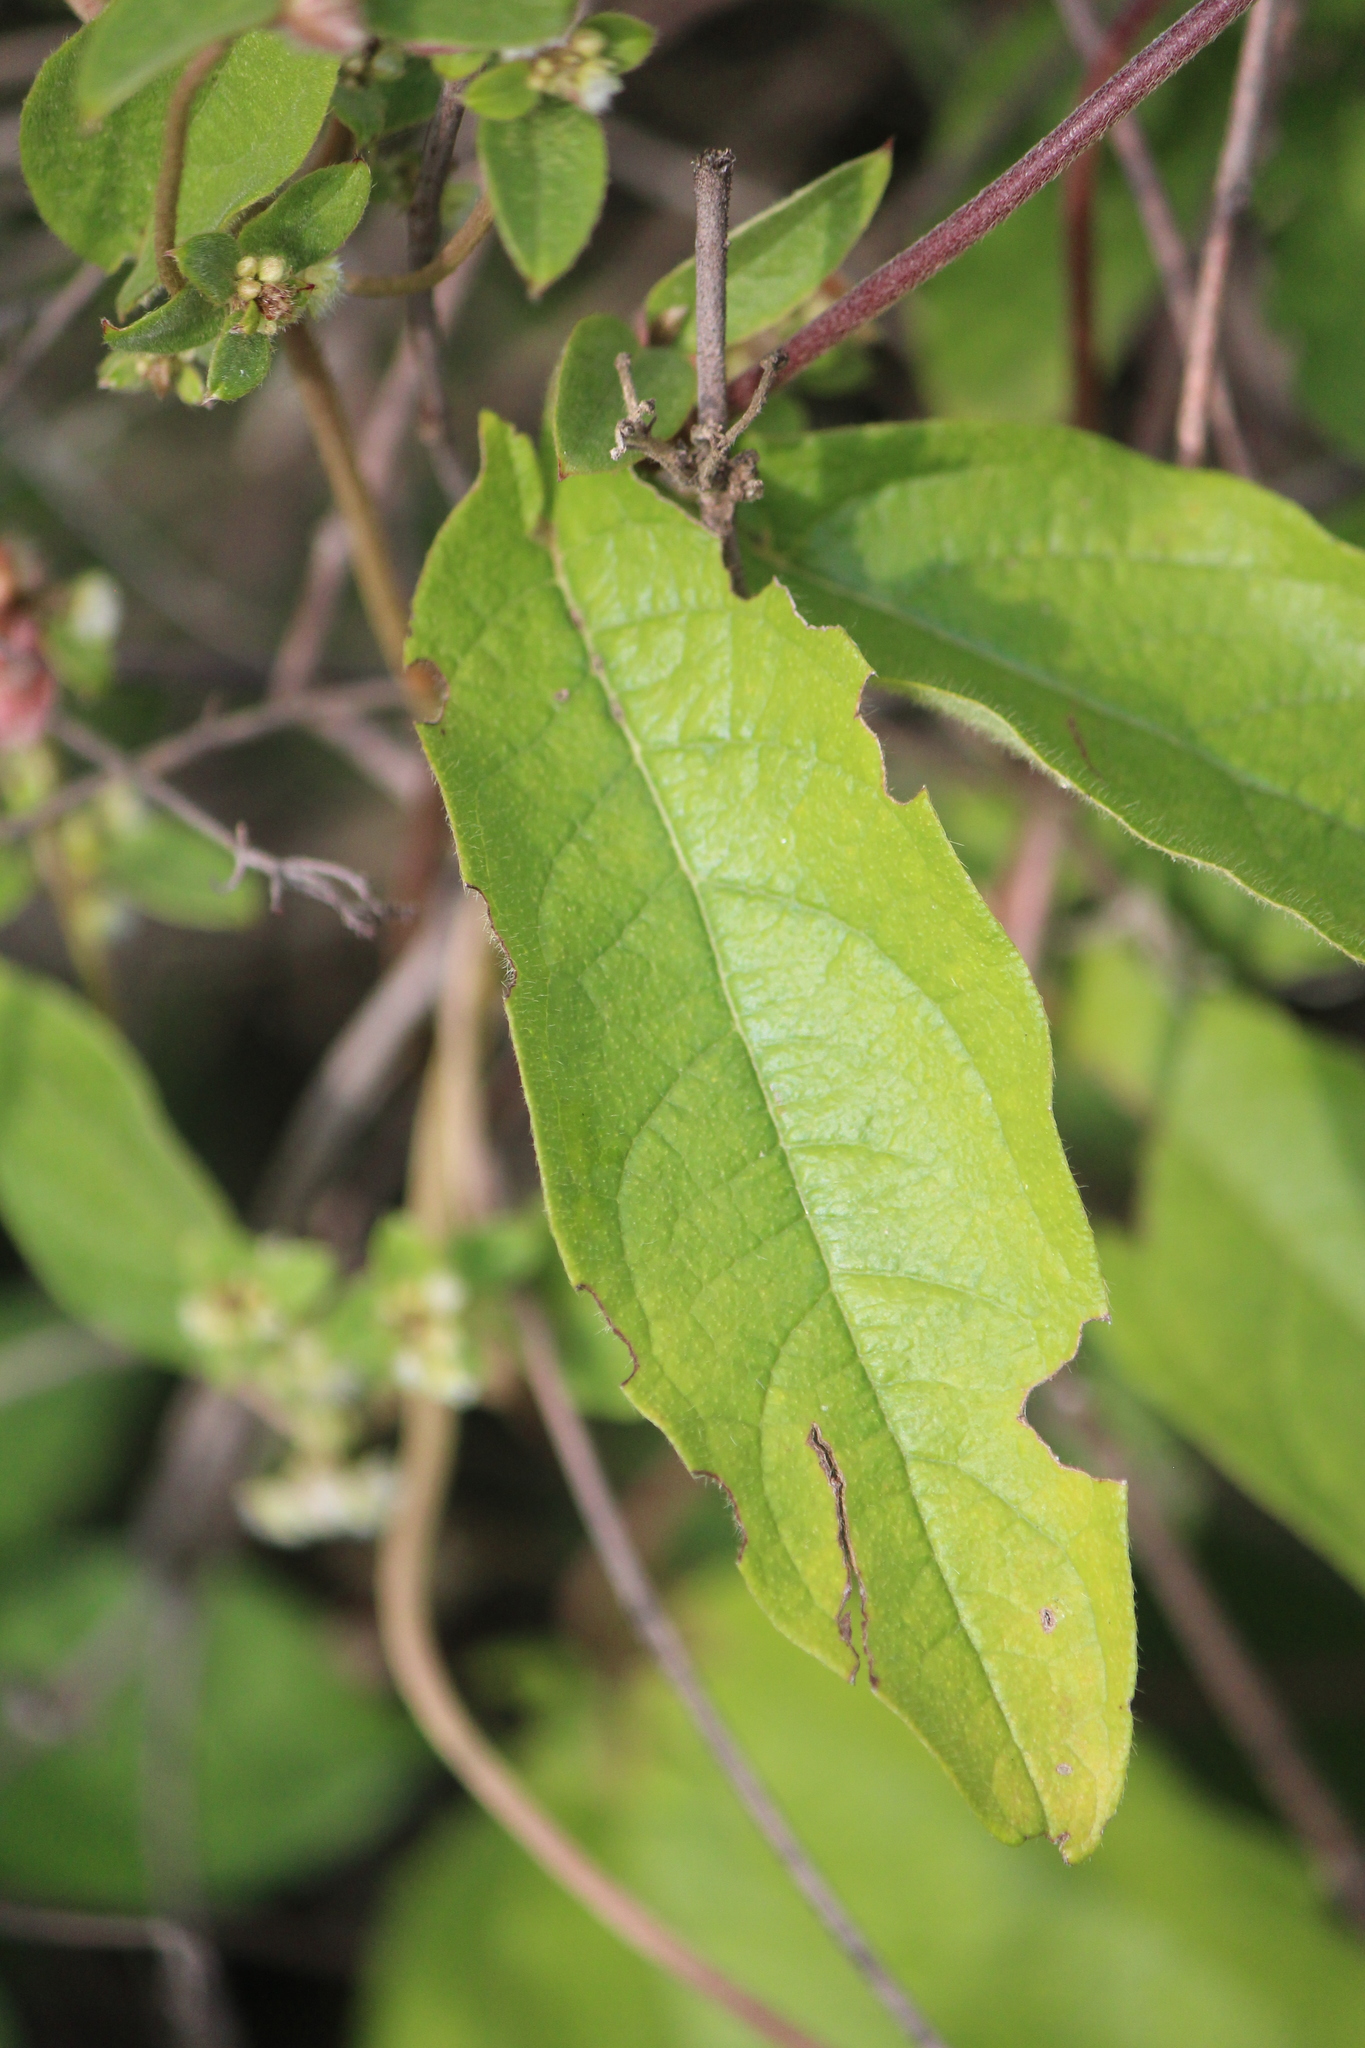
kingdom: Animalia
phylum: Arthropoda
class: Insecta
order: Lepidoptera
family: Pieridae
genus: Abaeis
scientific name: Abaeis nicippe
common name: Sleepy orange
